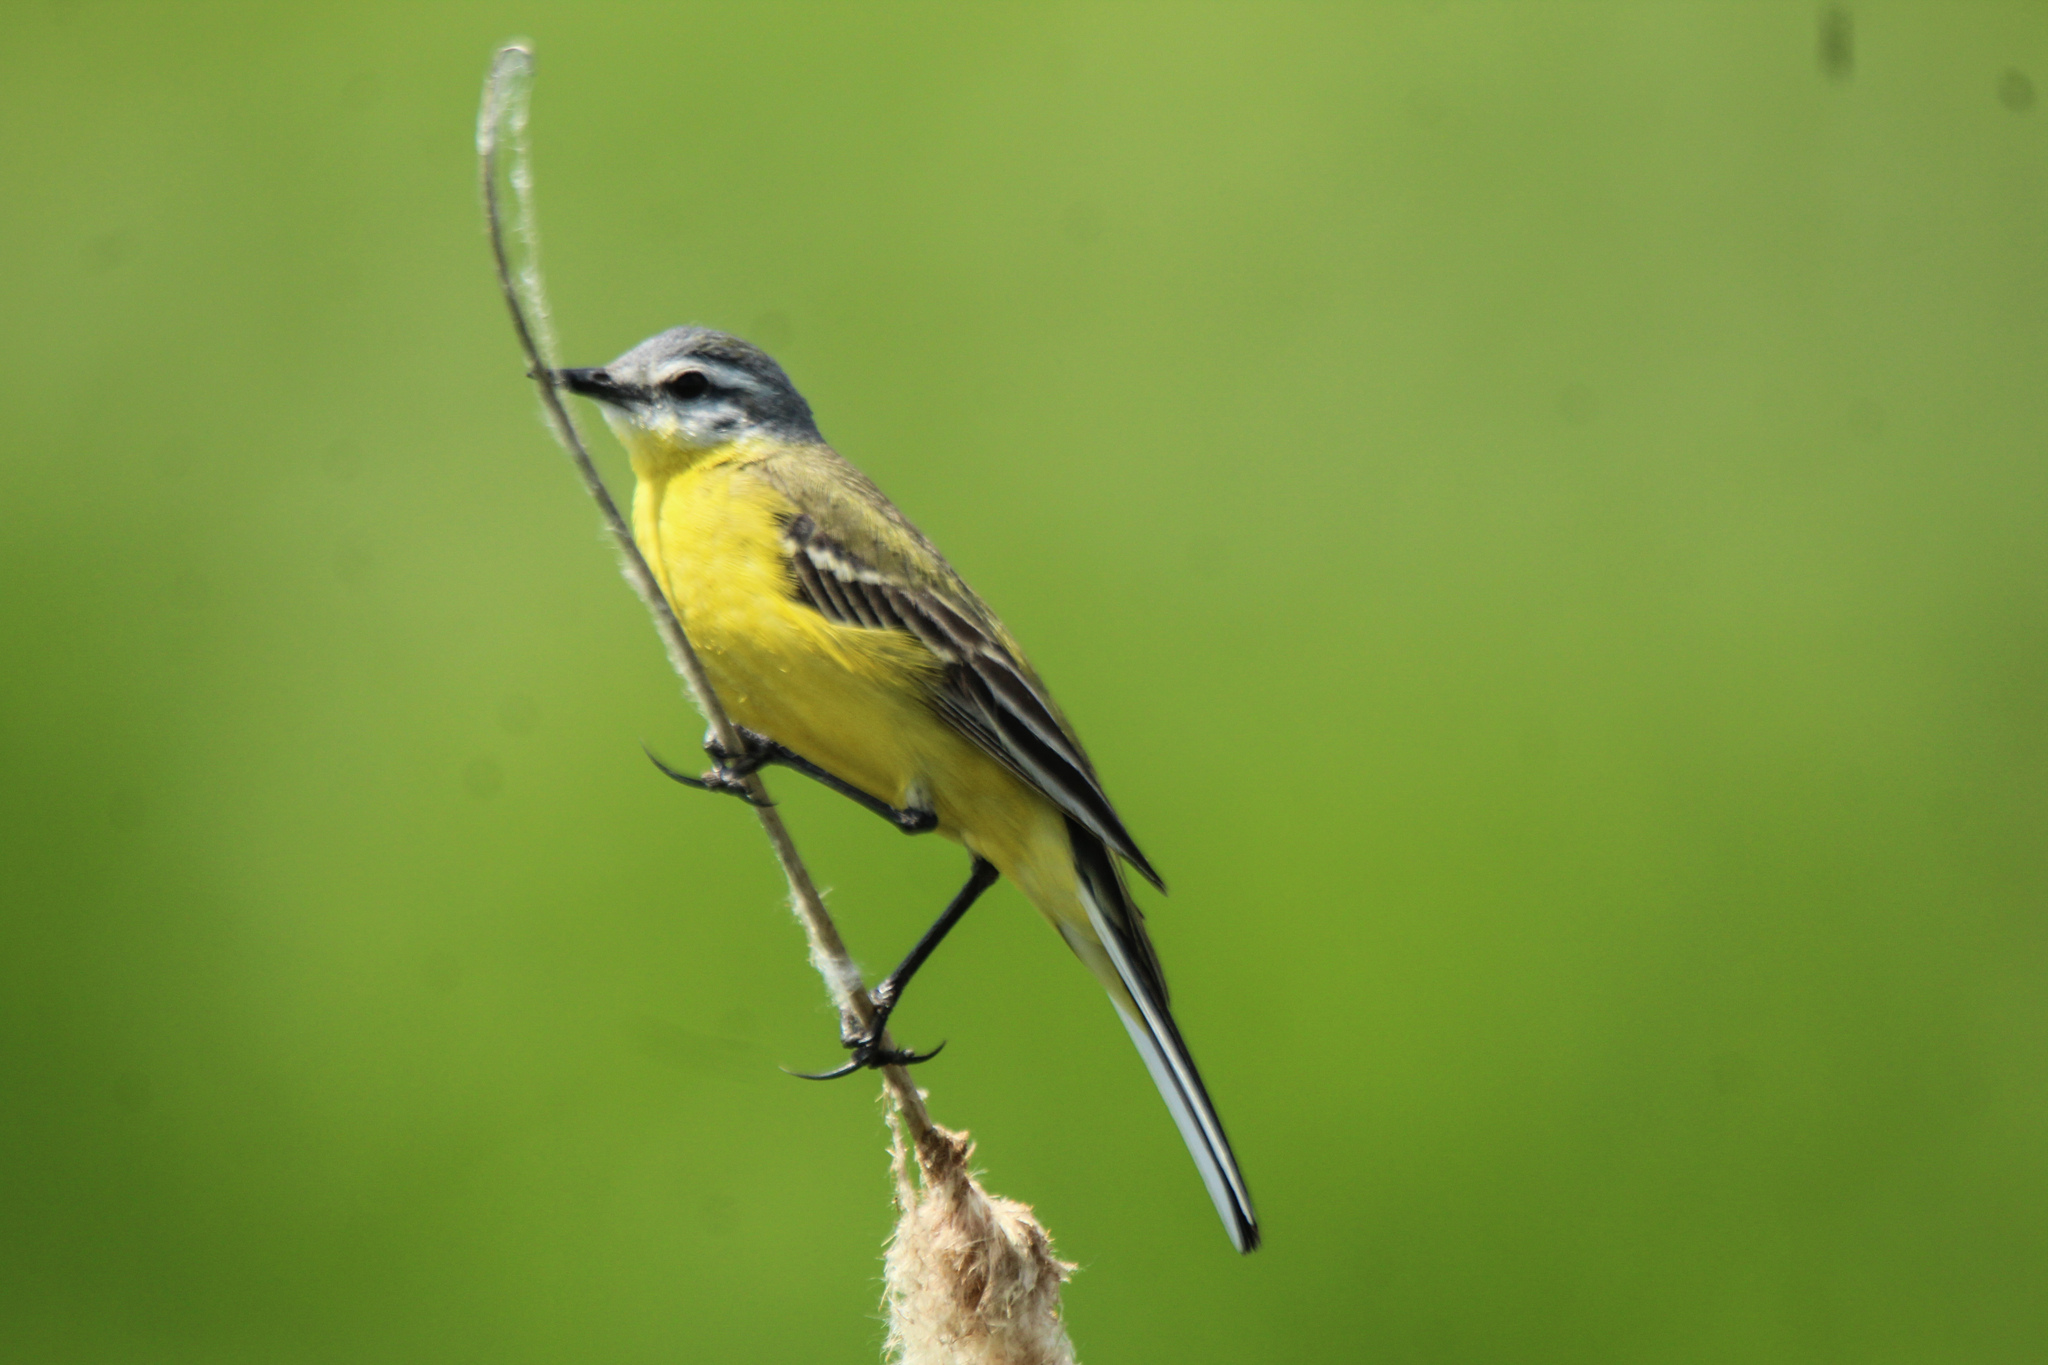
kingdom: Animalia
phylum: Chordata
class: Aves
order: Passeriformes
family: Motacillidae
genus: Motacilla
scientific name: Motacilla flava
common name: Western yellow wagtail
